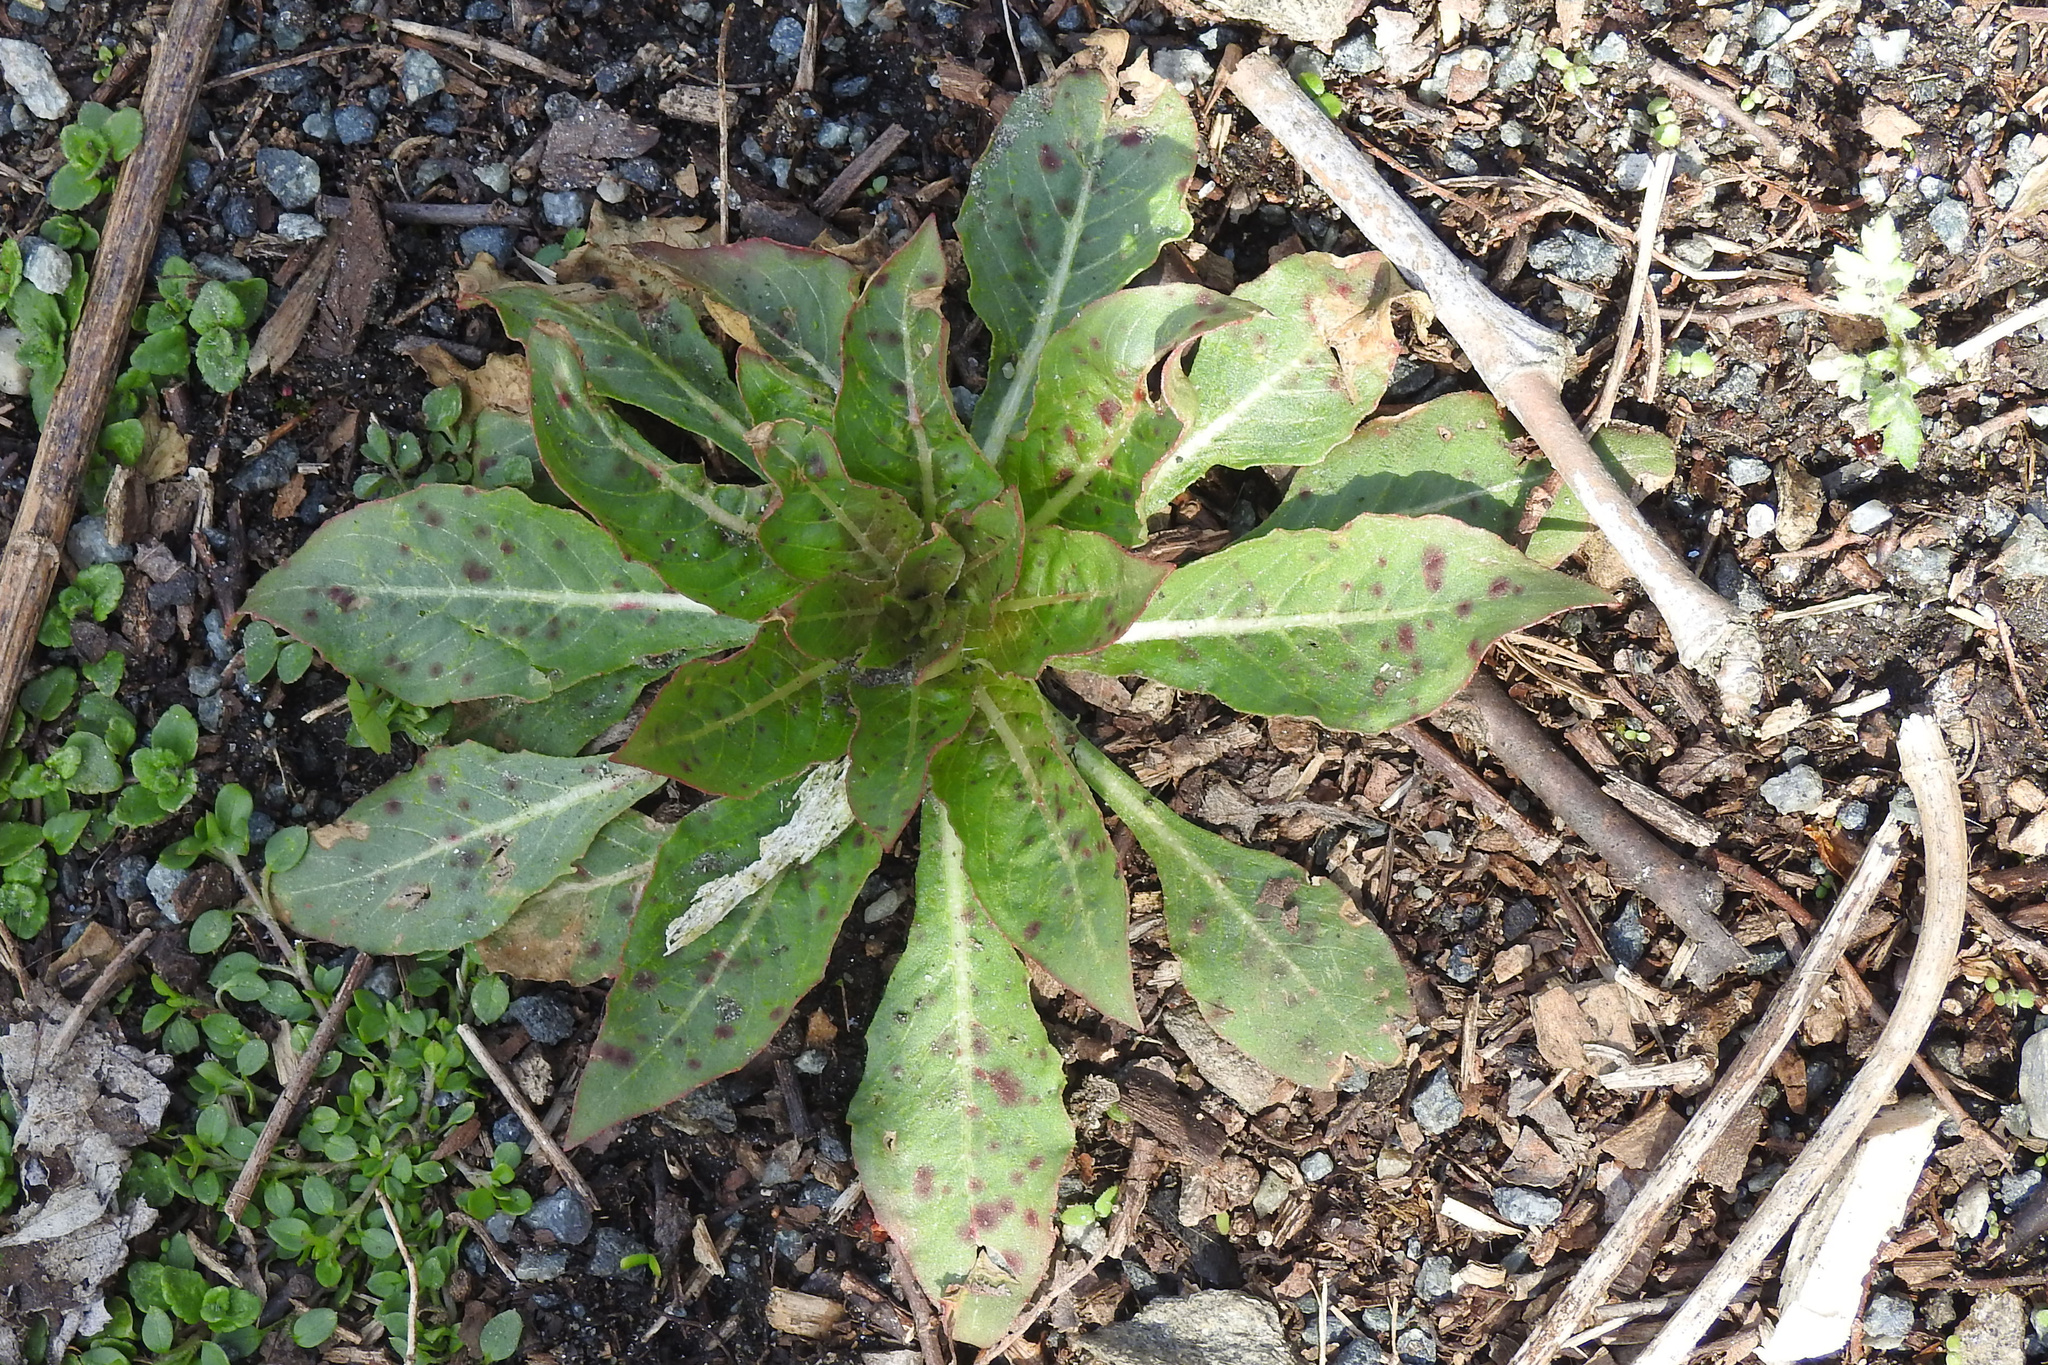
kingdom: Plantae
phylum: Tracheophyta
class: Magnoliopsida
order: Myrtales
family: Onagraceae
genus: Oenothera
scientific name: Oenothera biennis
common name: Common evening-primrose
